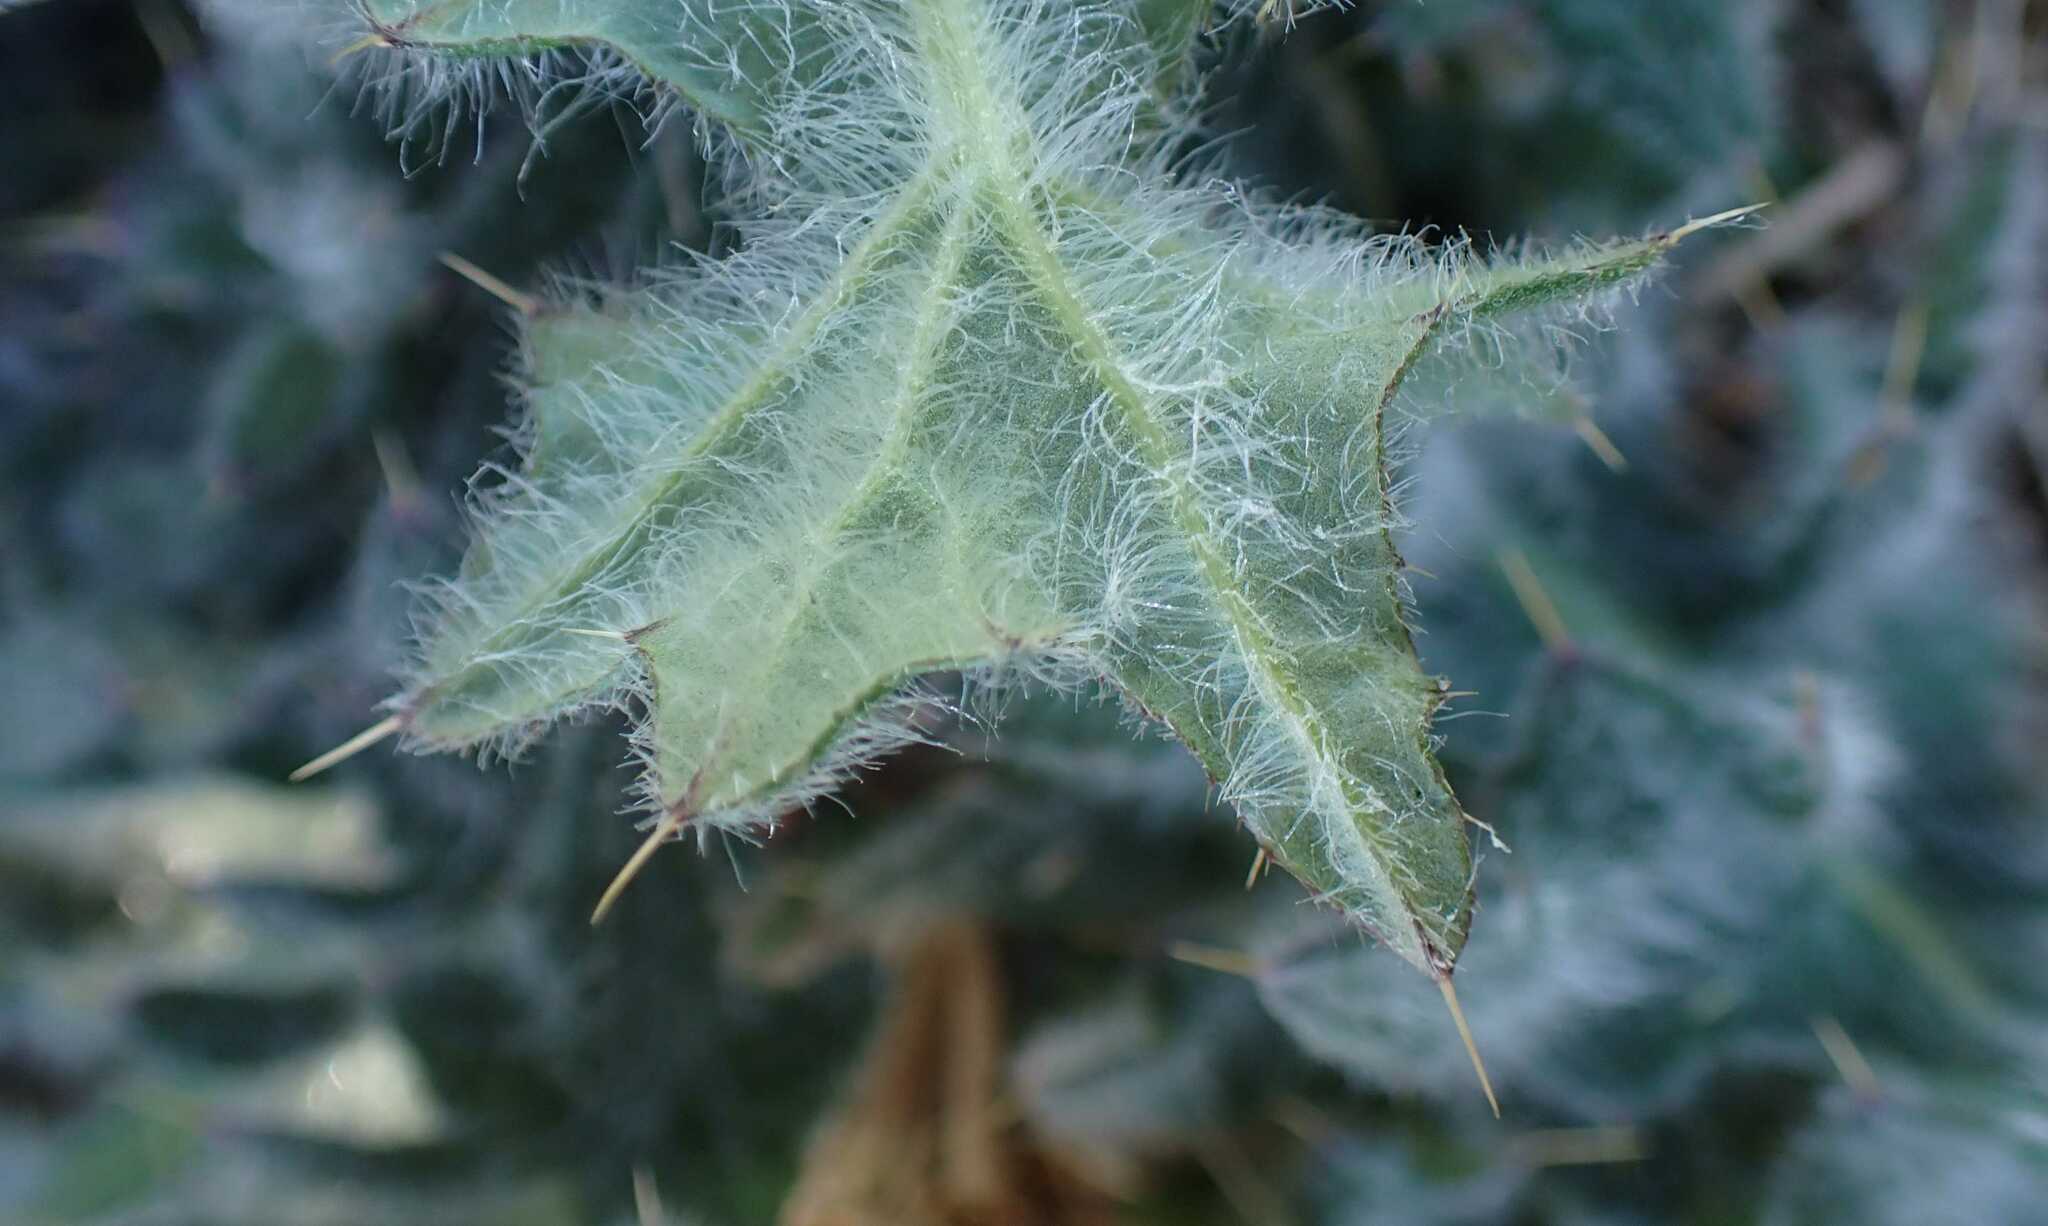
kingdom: Plantae
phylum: Tracheophyta
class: Magnoliopsida
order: Asterales
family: Asteraceae
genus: Cirsium
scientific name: Cirsium vulgare
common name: Bull thistle
